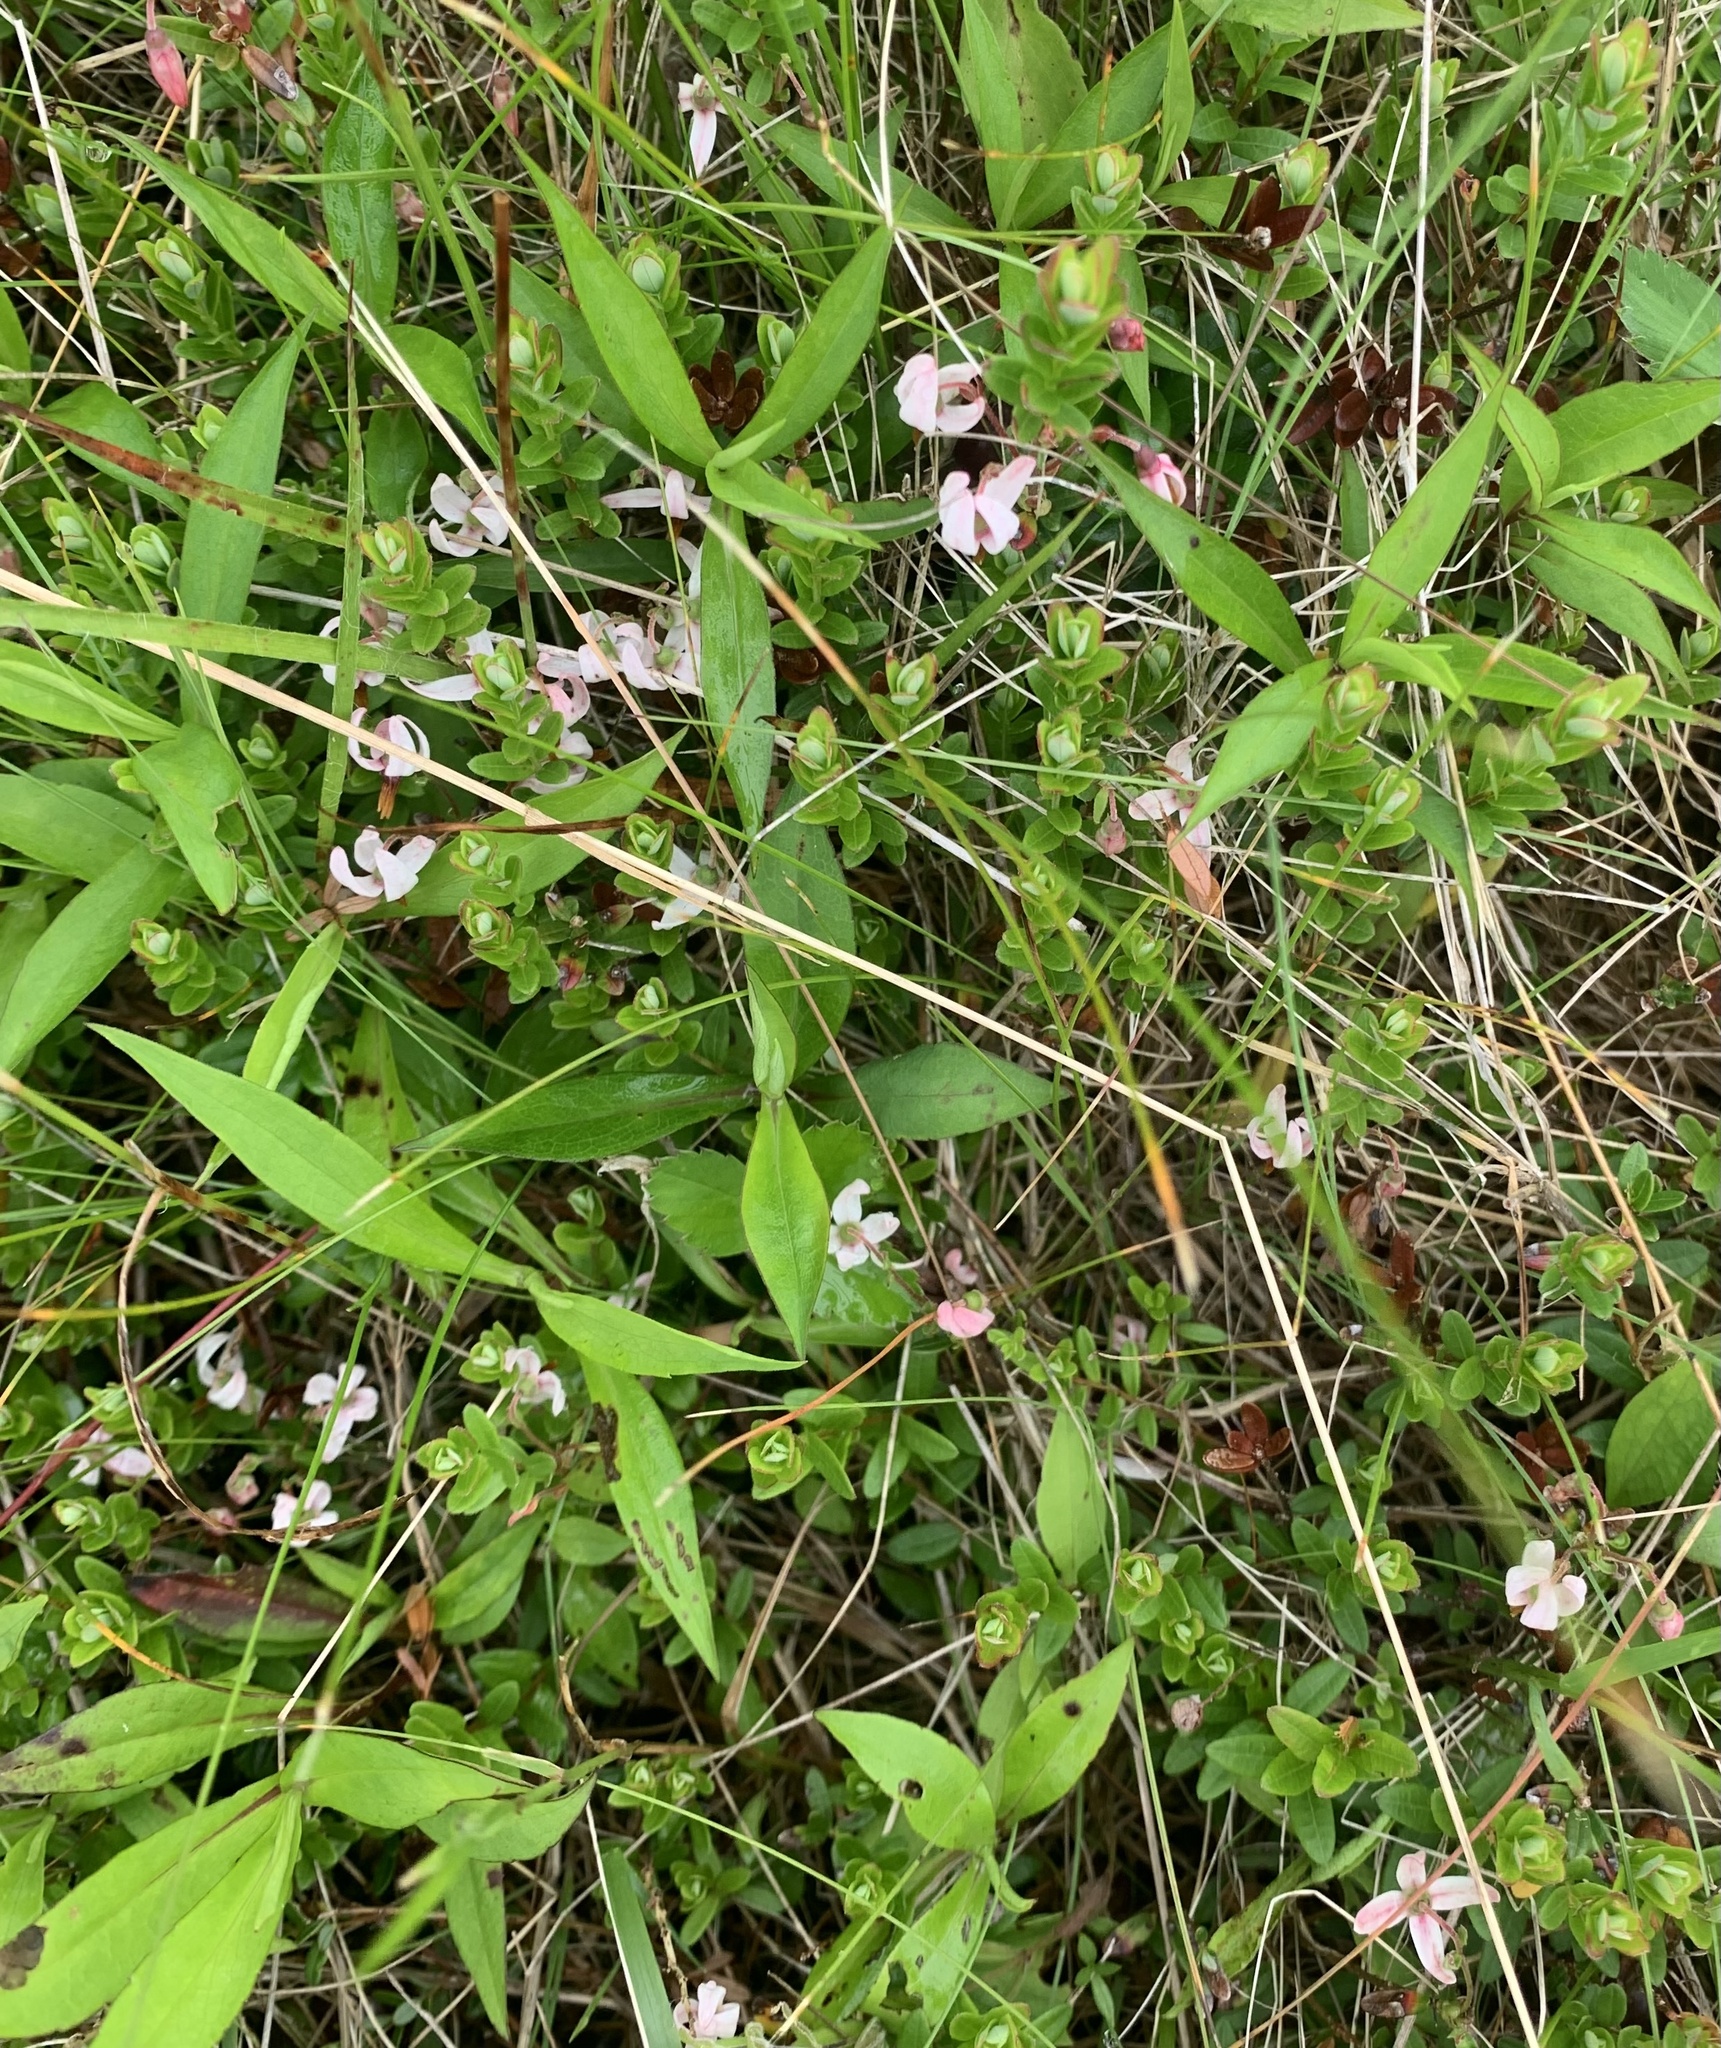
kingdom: Plantae
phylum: Tracheophyta
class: Magnoliopsida
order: Ericales
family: Ericaceae
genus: Vaccinium
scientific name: Vaccinium macrocarpon
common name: American cranberry
